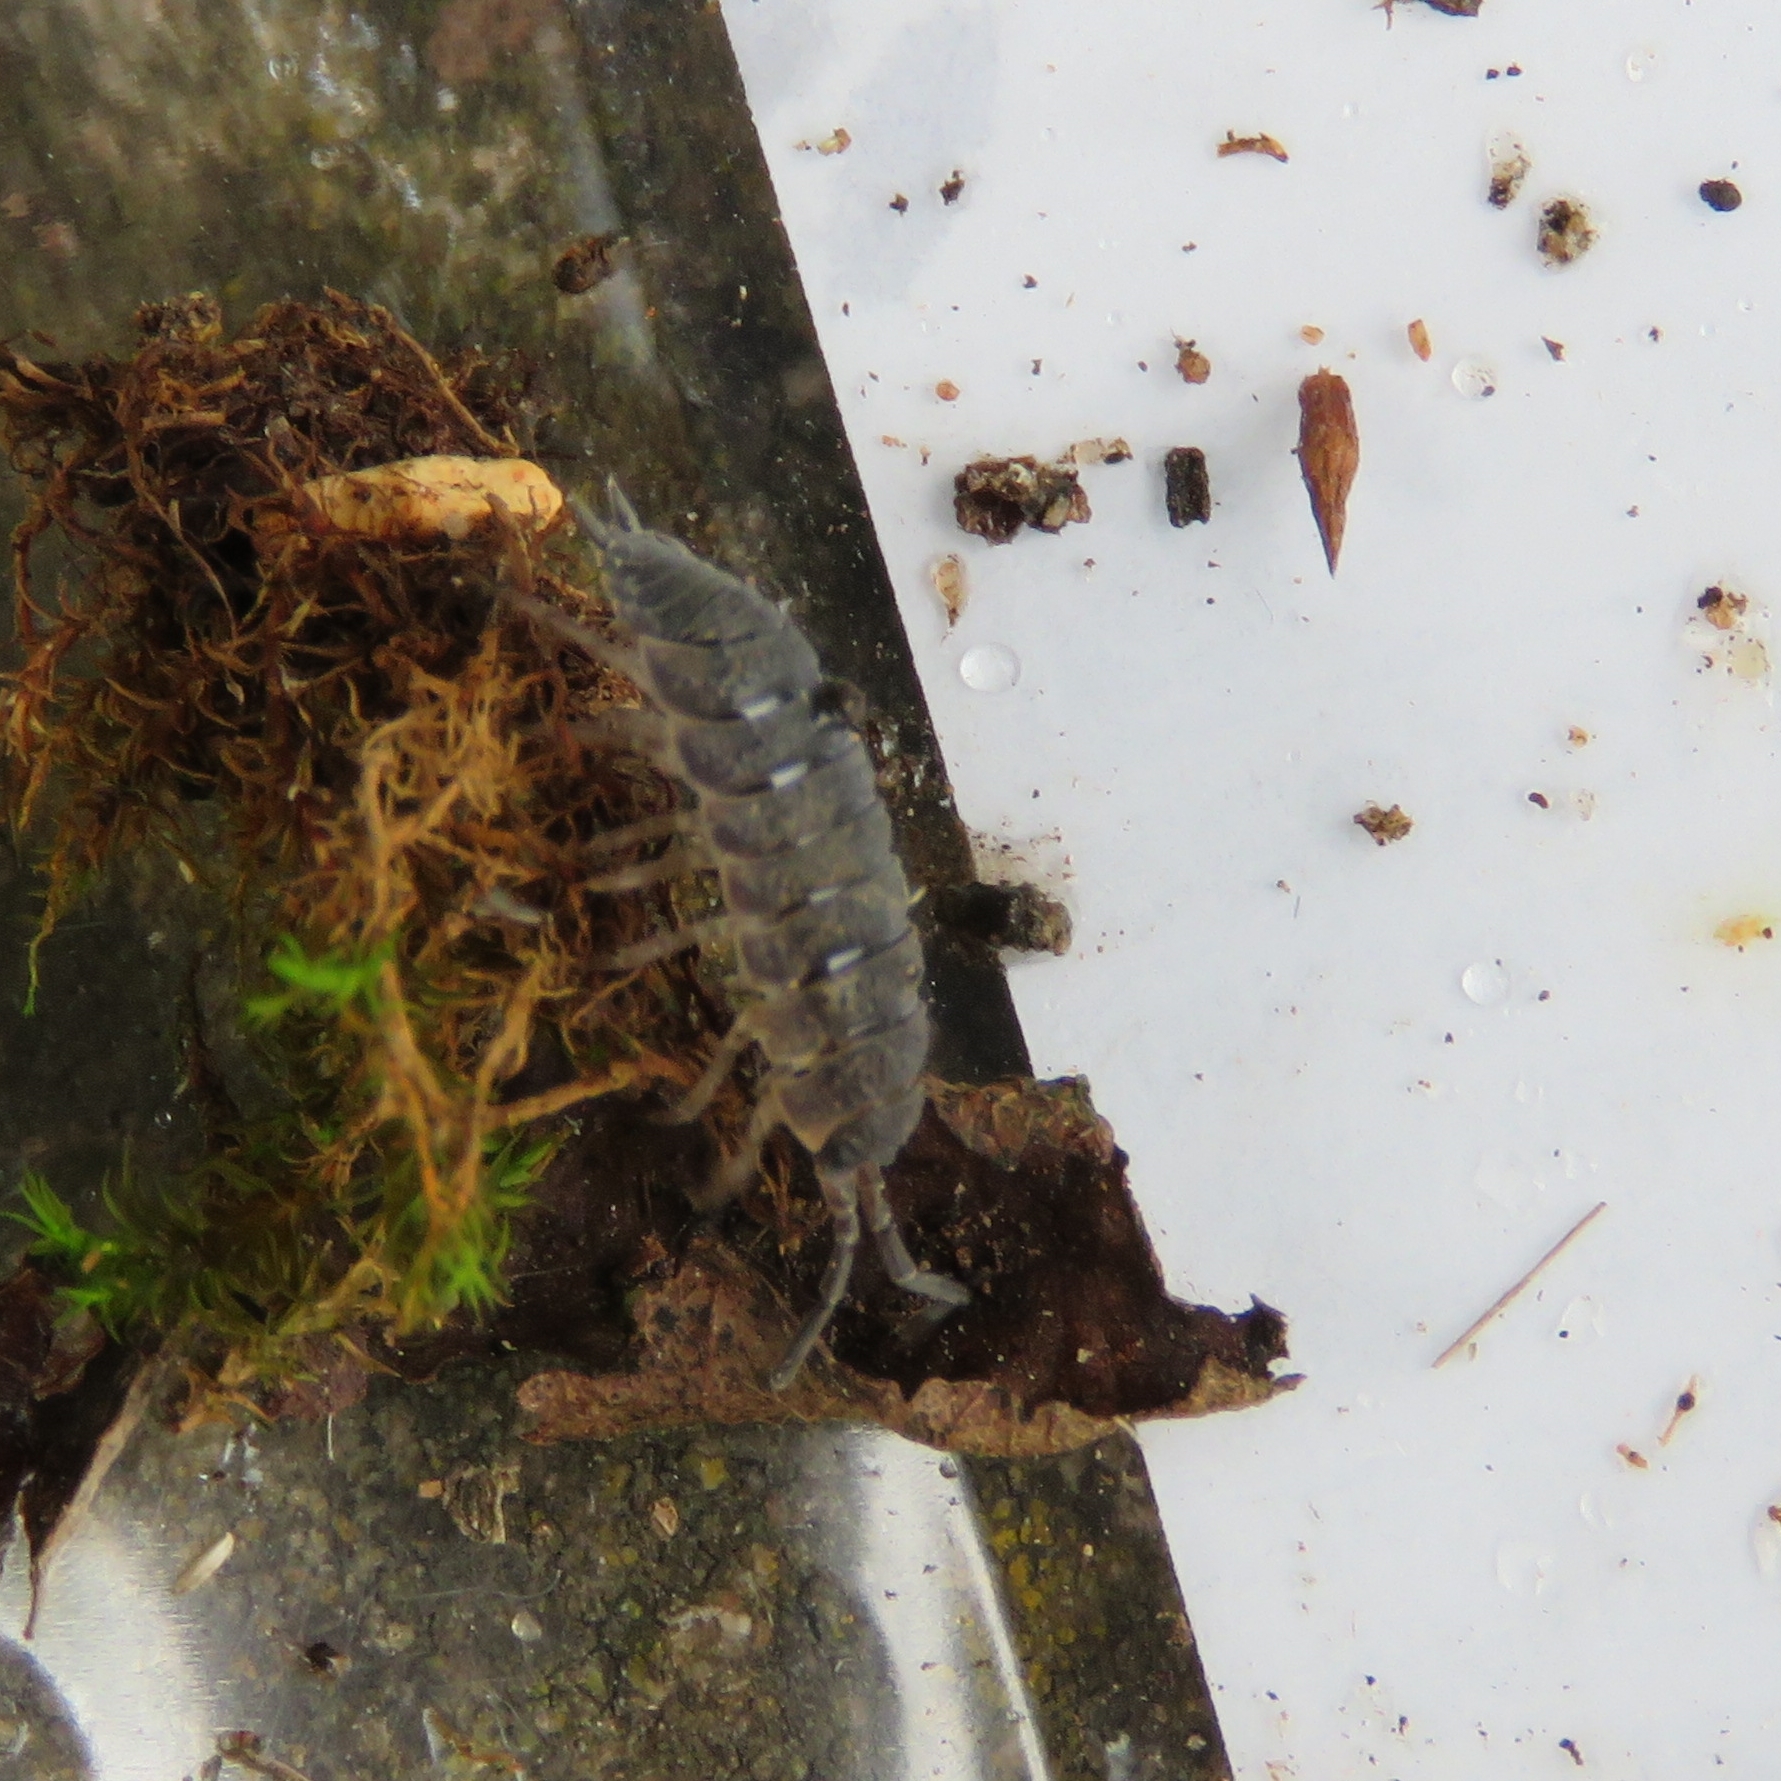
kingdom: Animalia
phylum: Arthropoda
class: Malacostraca
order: Isopoda
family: Porcellionidae
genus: Porcellio
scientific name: Porcellio scaber
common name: Common rough woodlouse
